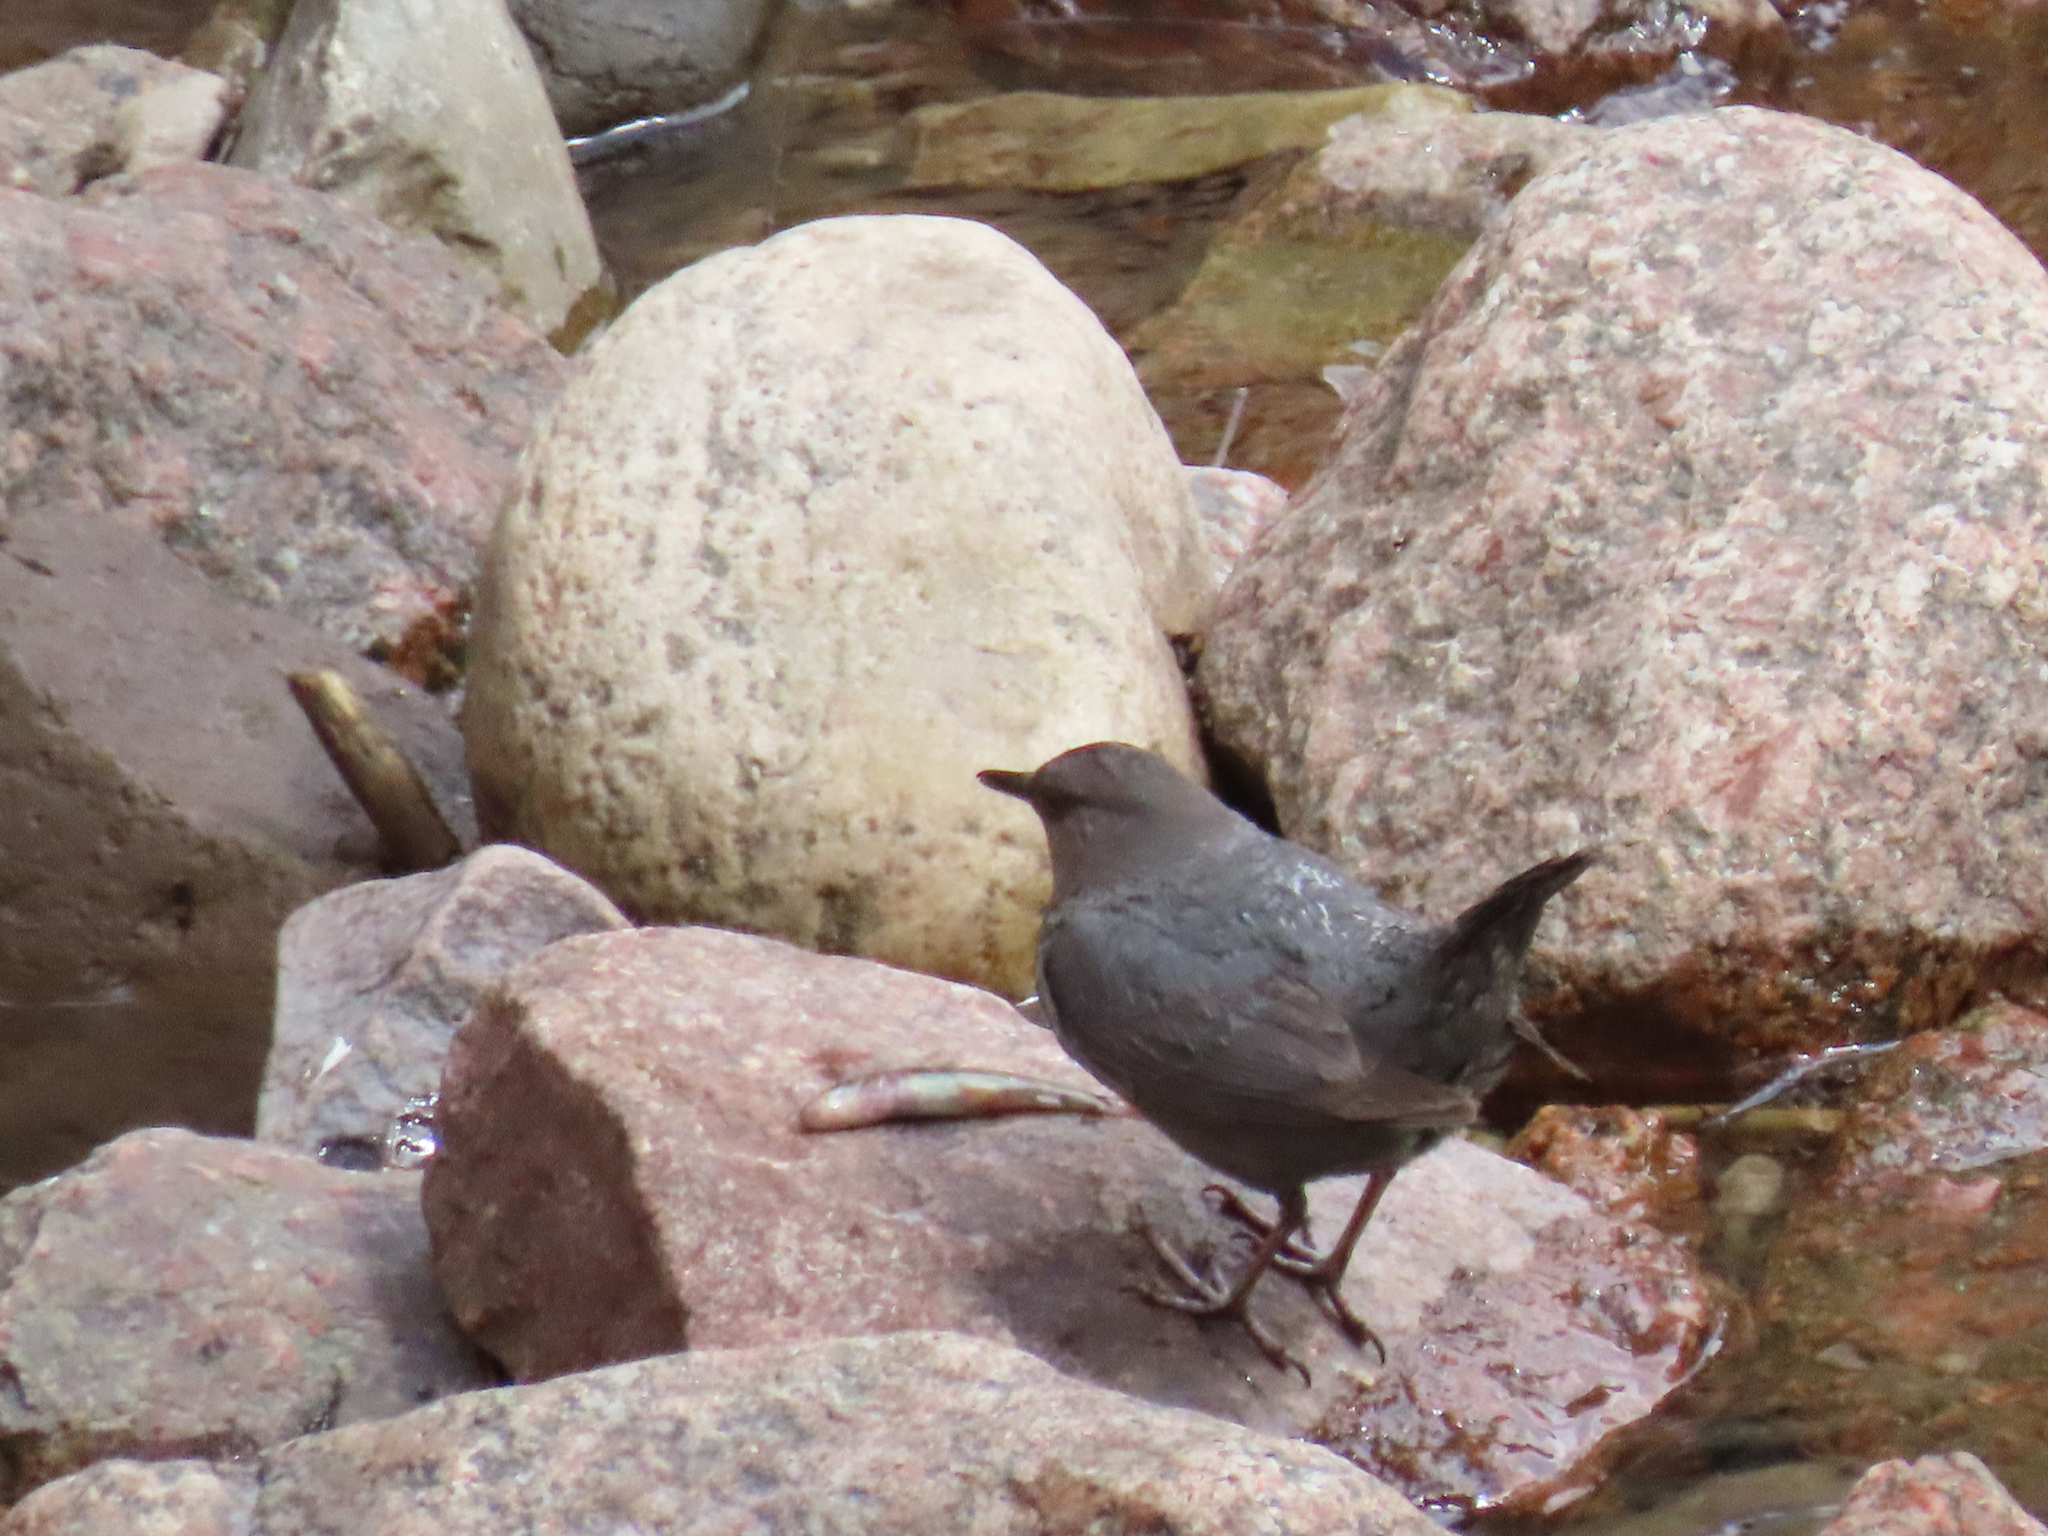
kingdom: Animalia
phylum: Chordata
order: Cypriniformes
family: Catostomidae
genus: Catostomus
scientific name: Catostomus plebeius
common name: Rio grande sucker
